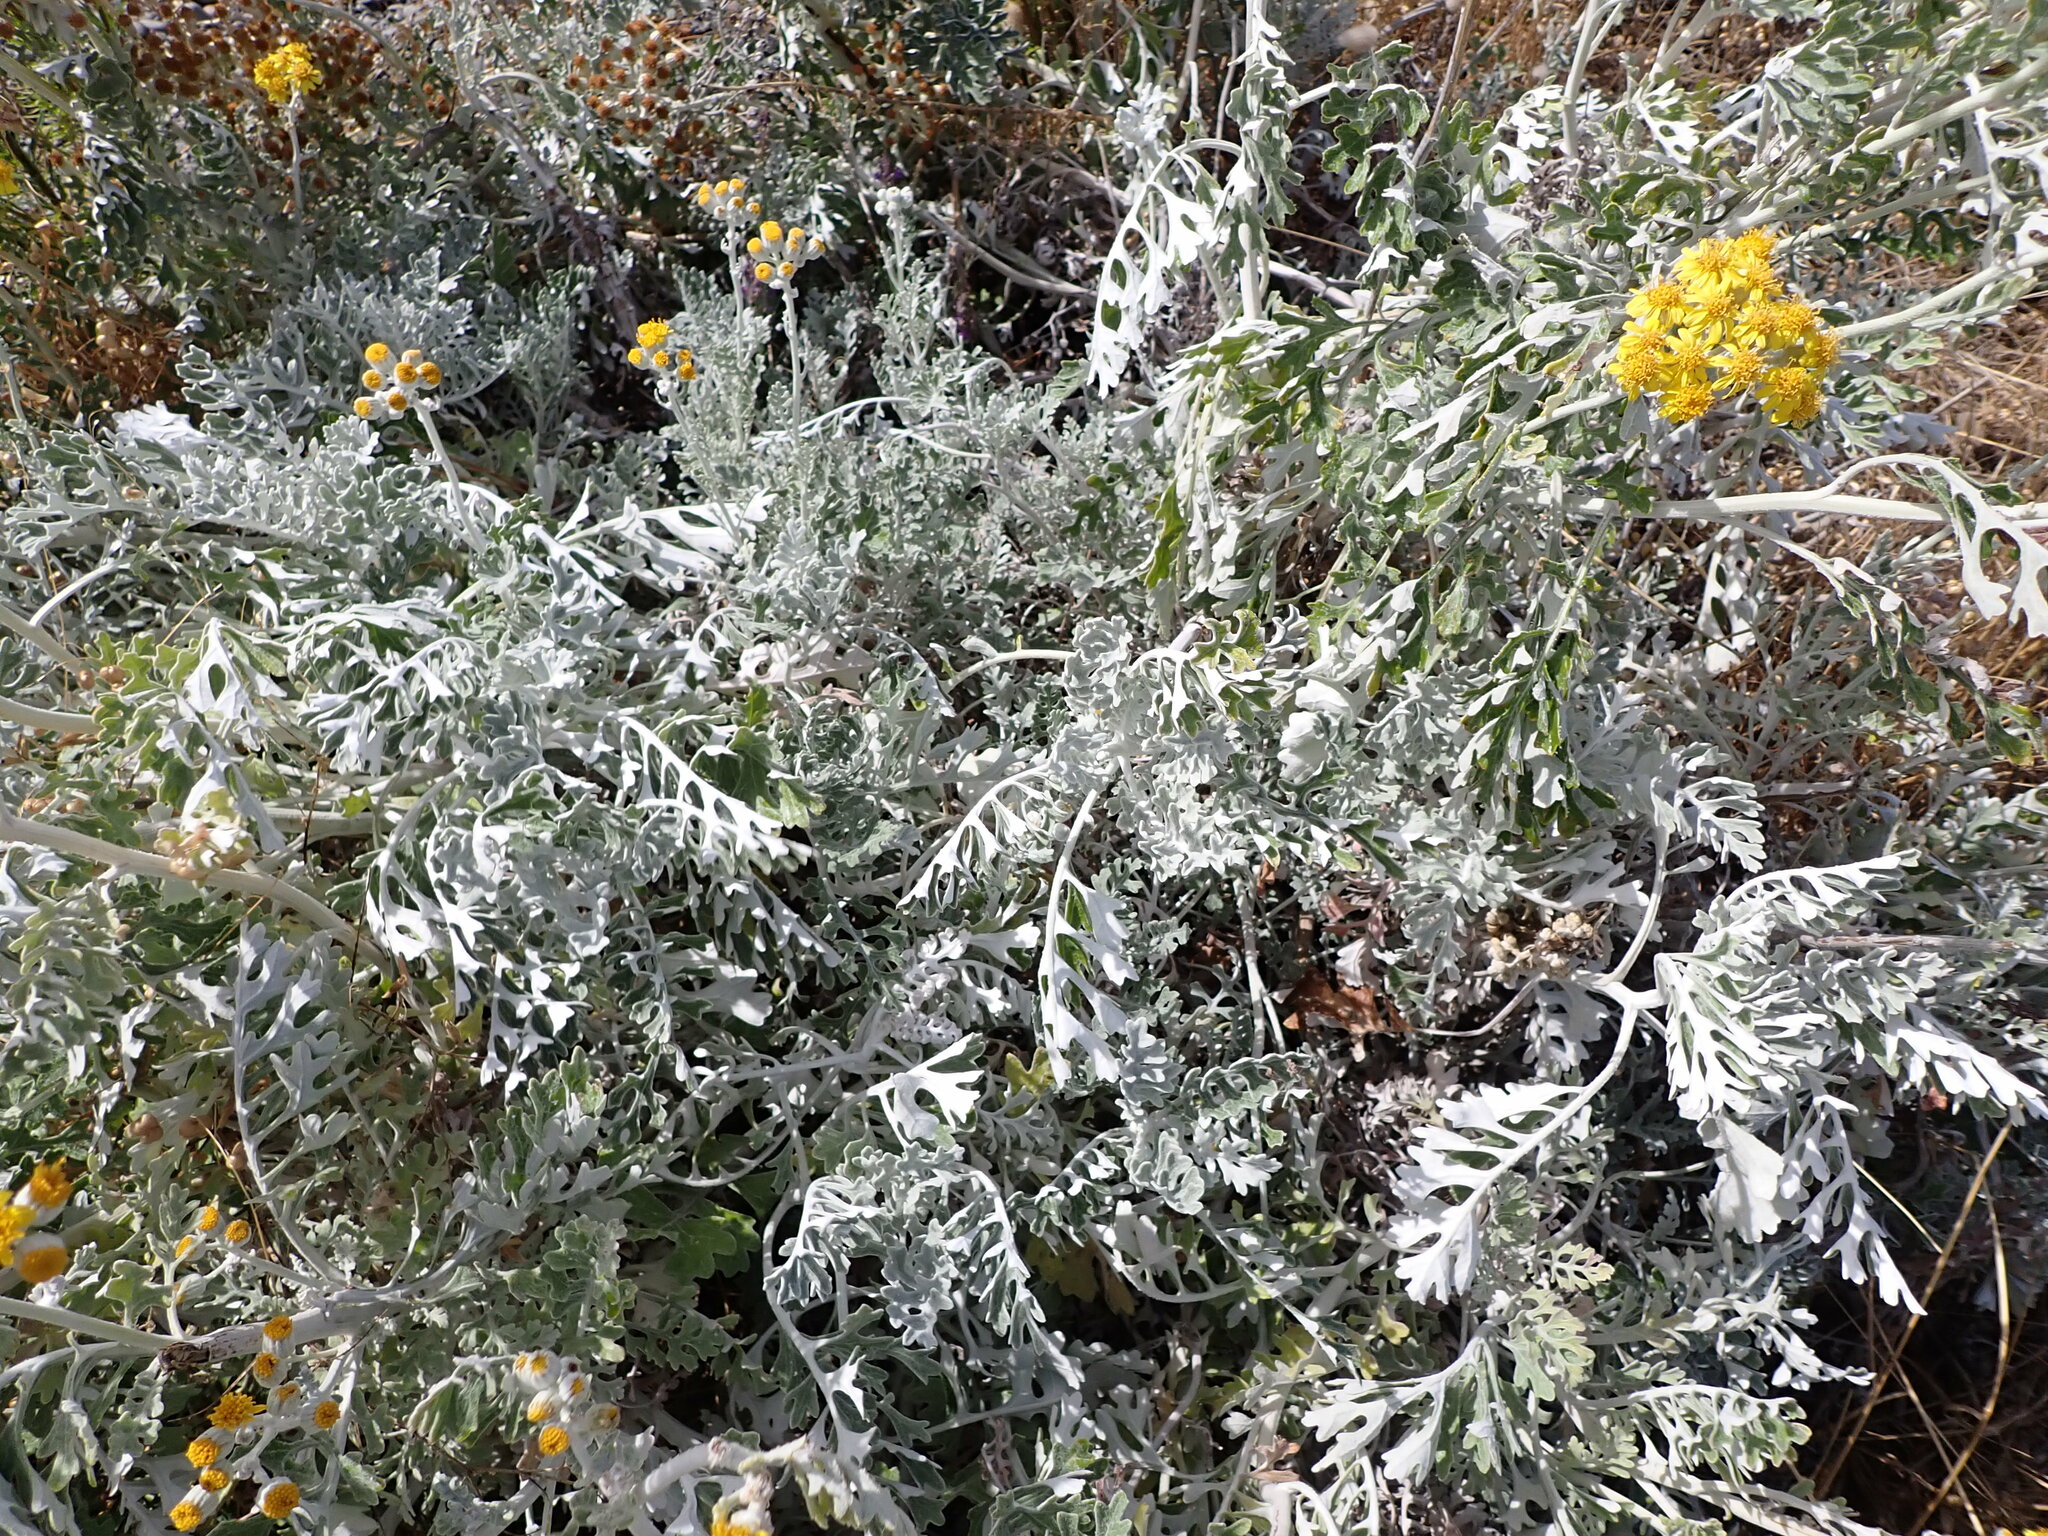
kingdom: Plantae
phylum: Tracheophyta
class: Magnoliopsida
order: Asterales
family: Asteraceae
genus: Jacobaea
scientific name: Jacobaea maritima
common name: Silver ragwort
